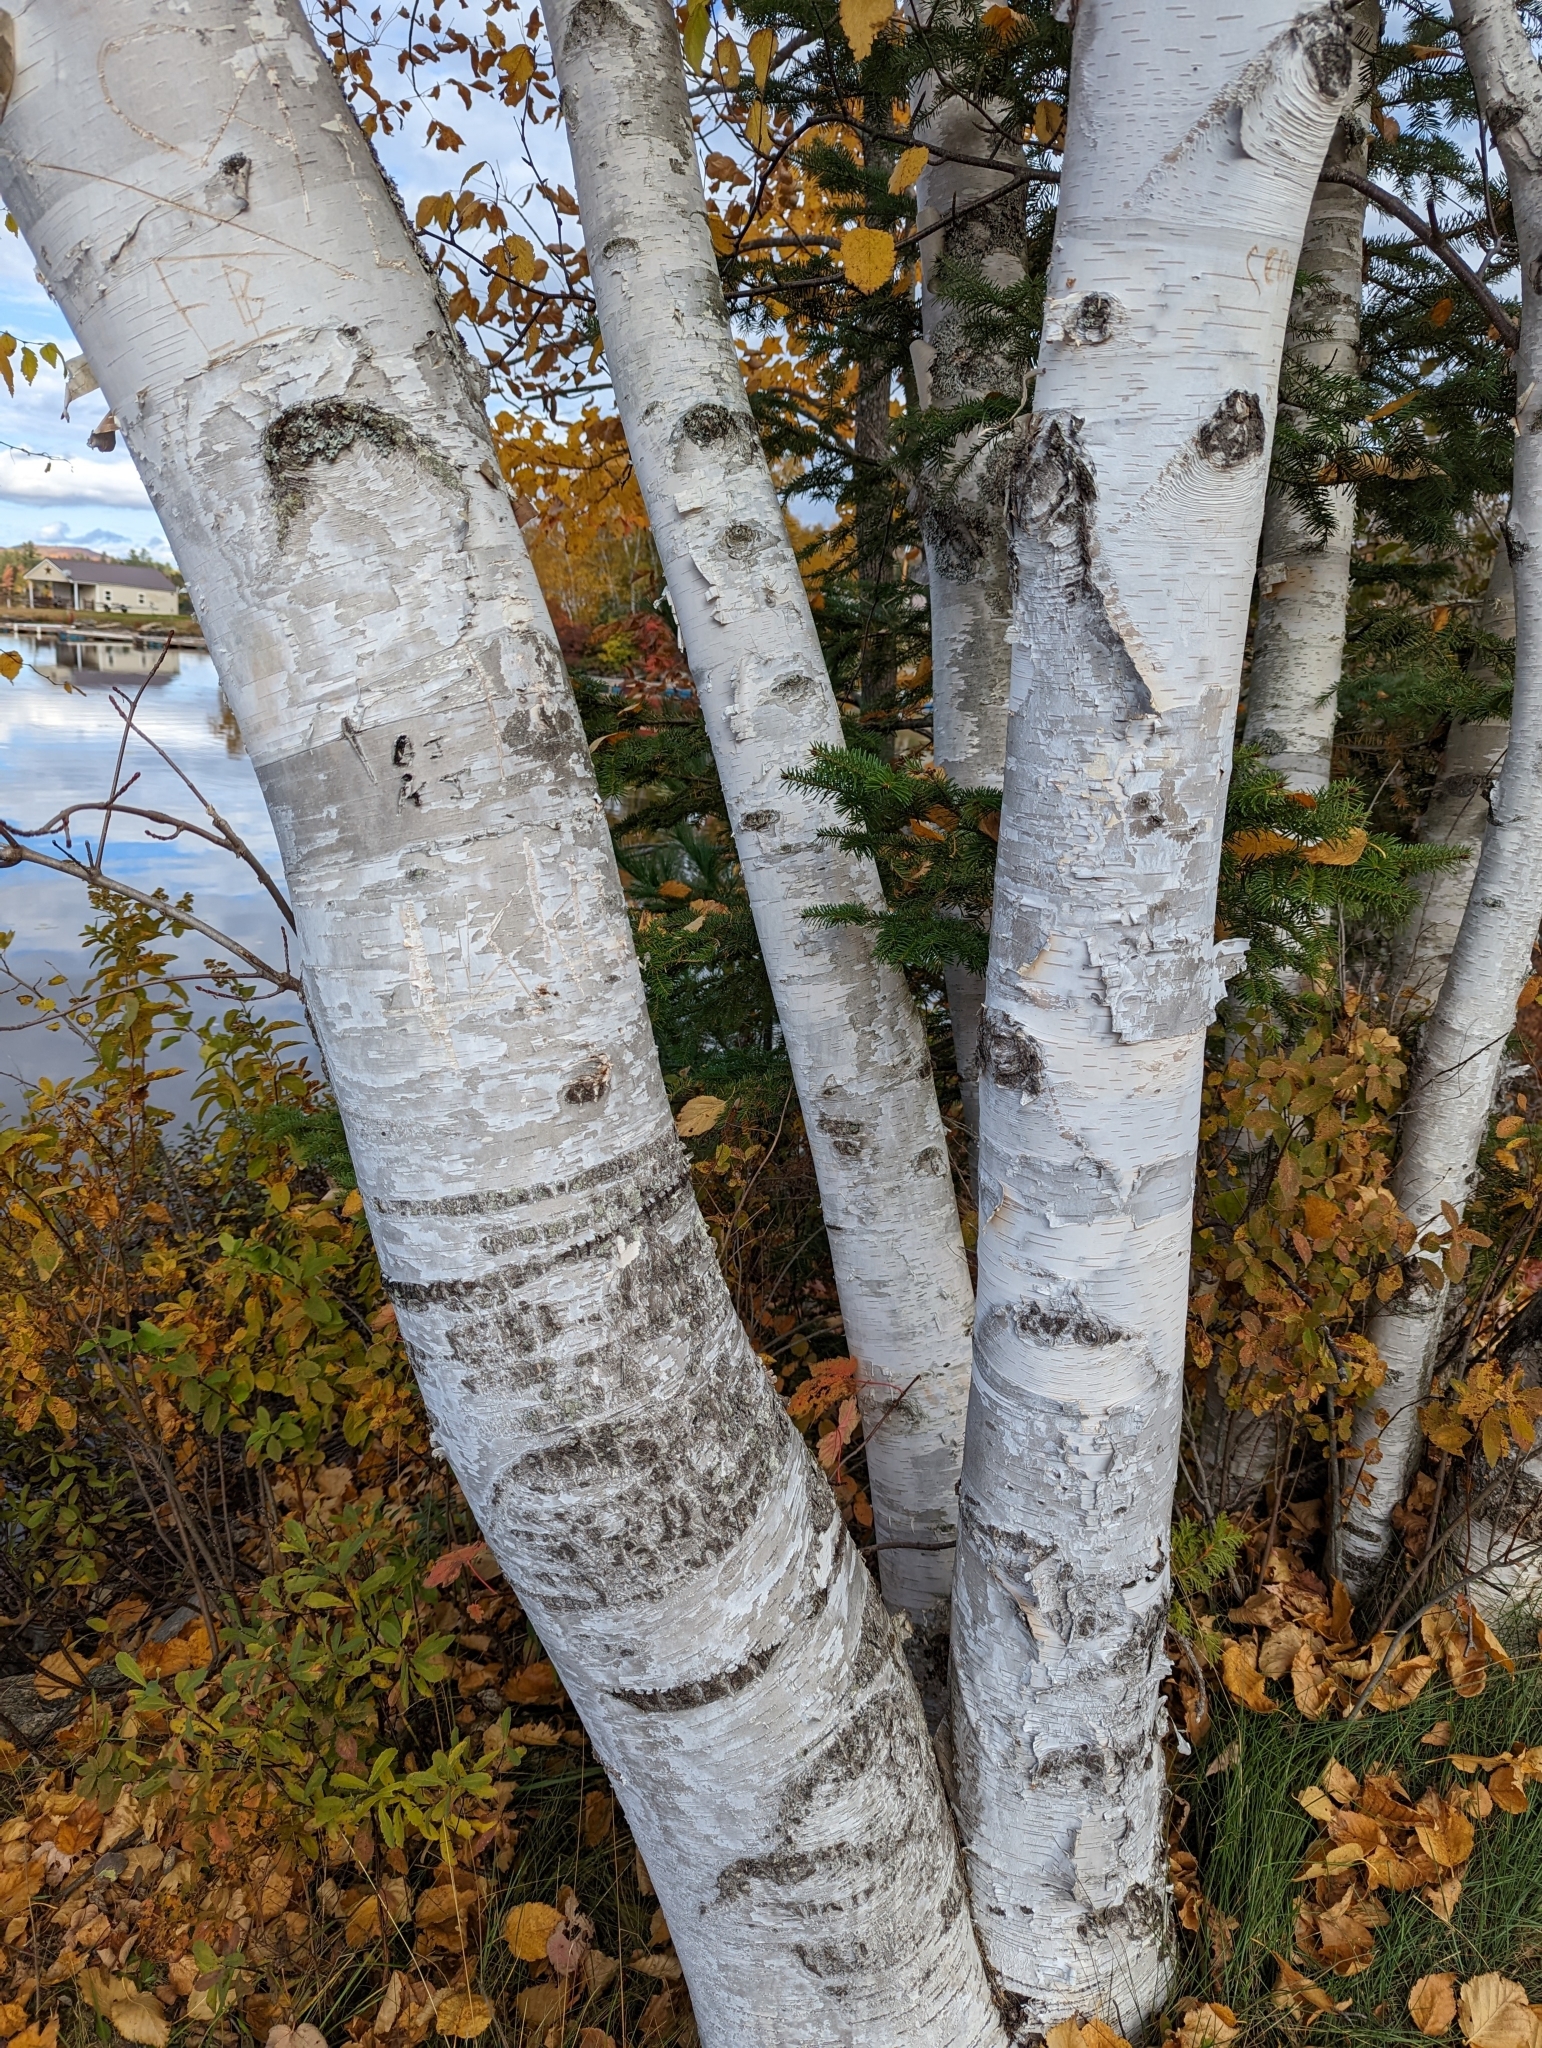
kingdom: Plantae
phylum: Tracheophyta
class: Magnoliopsida
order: Fagales
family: Betulaceae
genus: Betula
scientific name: Betula papyrifera
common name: Paper birch
